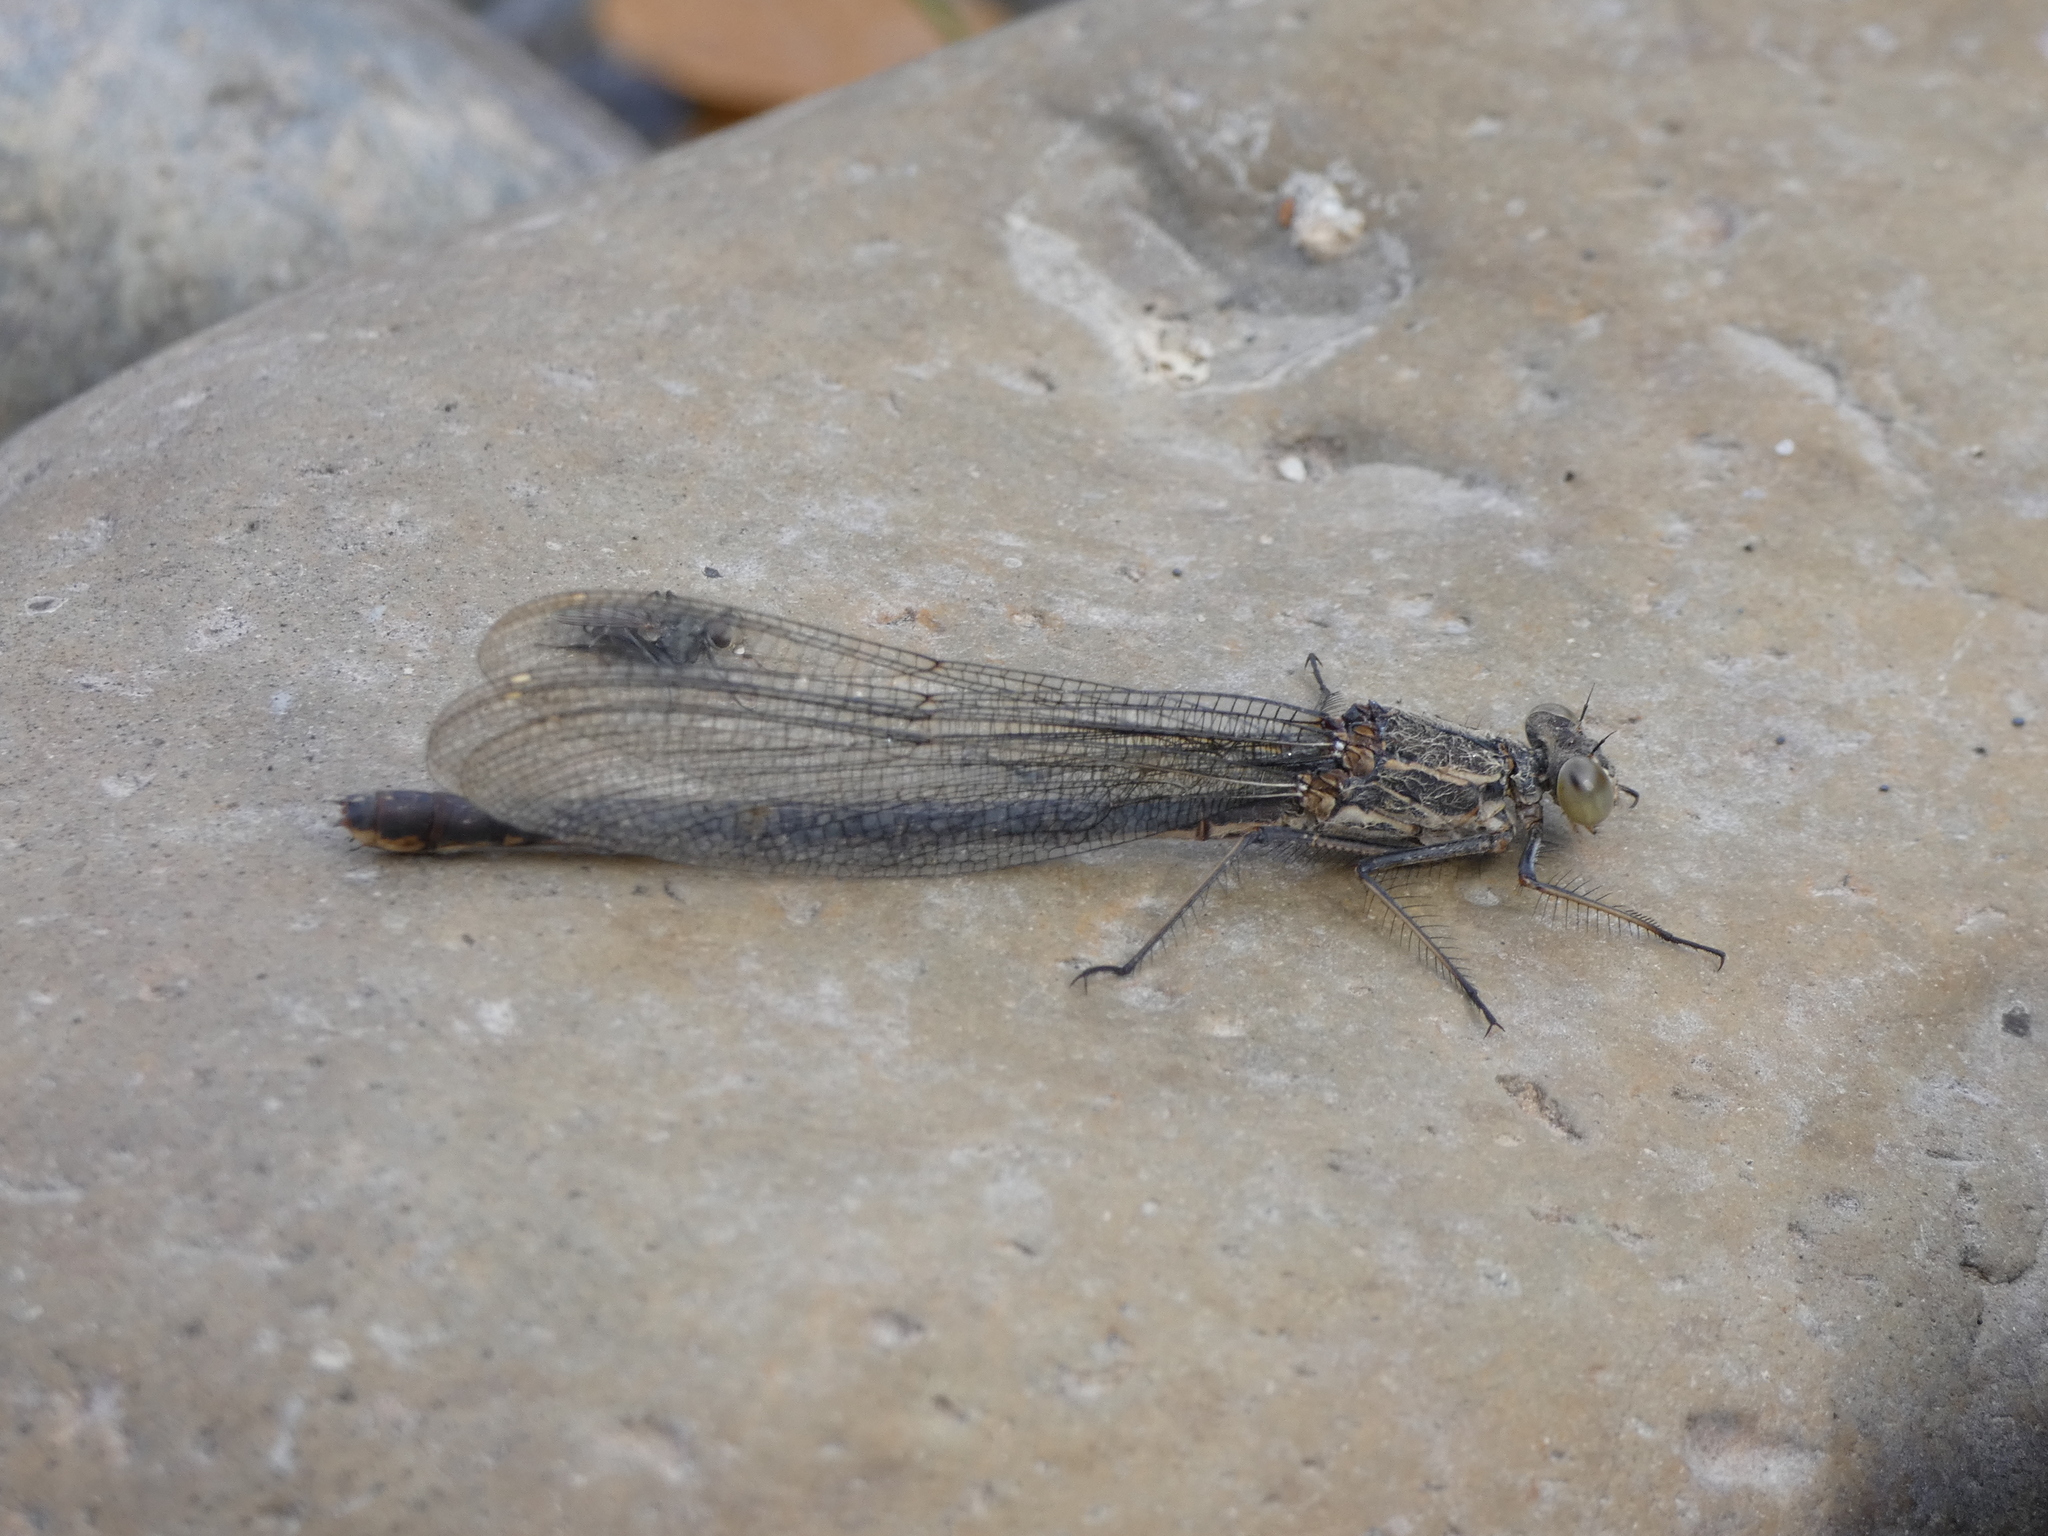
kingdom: Animalia
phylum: Arthropoda
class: Insecta
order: Odonata
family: Calopterygidae
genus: Hetaerina
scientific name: Hetaerina americana
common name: American rubyspot
